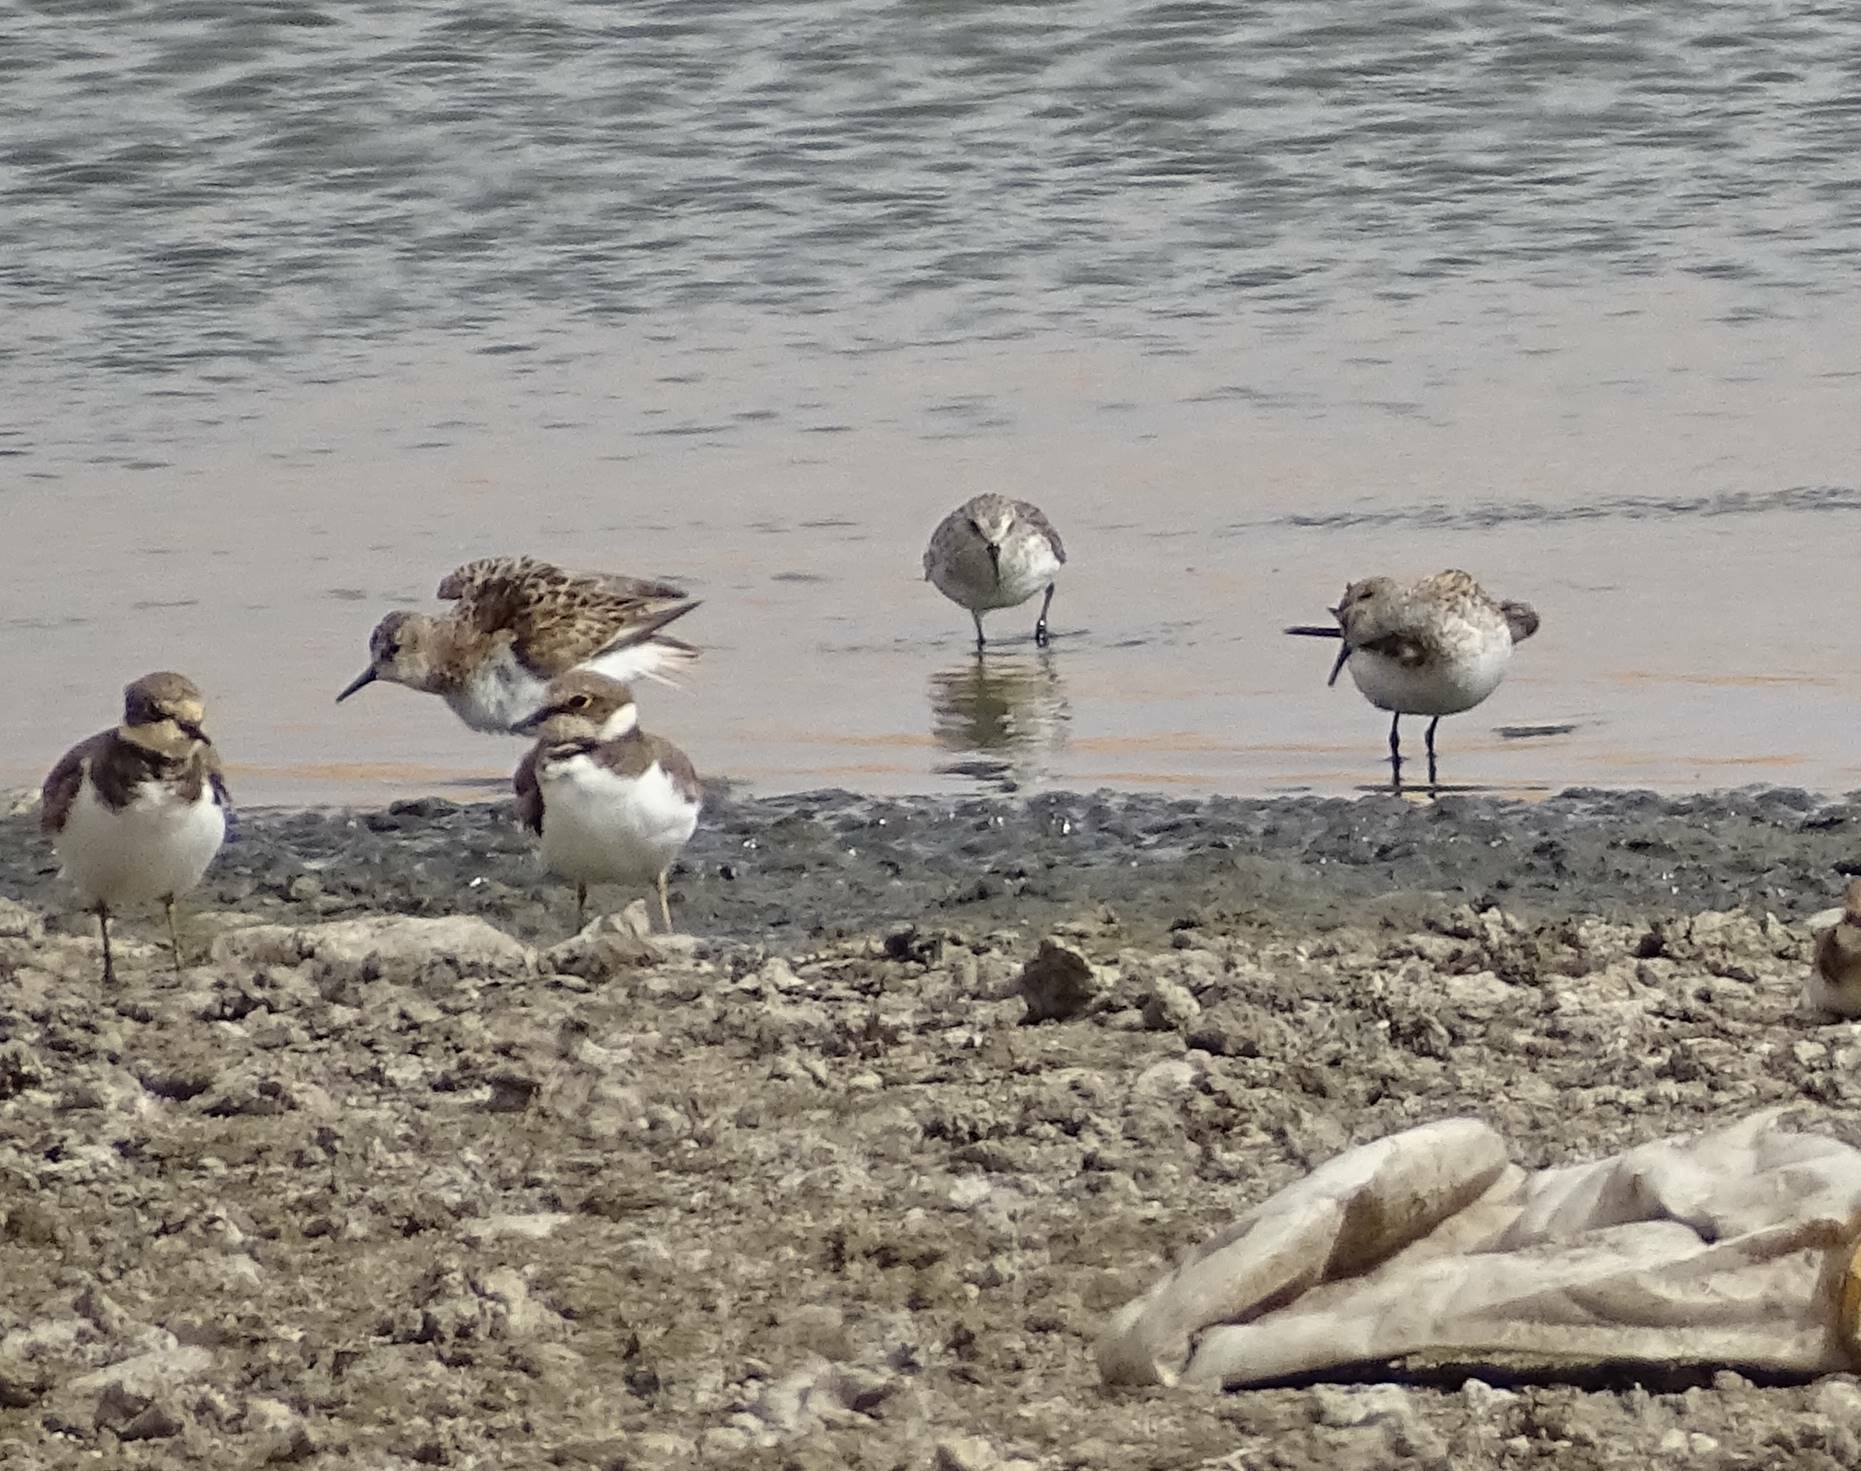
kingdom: Animalia
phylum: Chordata
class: Aves
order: Charadriiformes
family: Scolopacidae
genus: Calidris
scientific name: Calidris minuta
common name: Little stint
